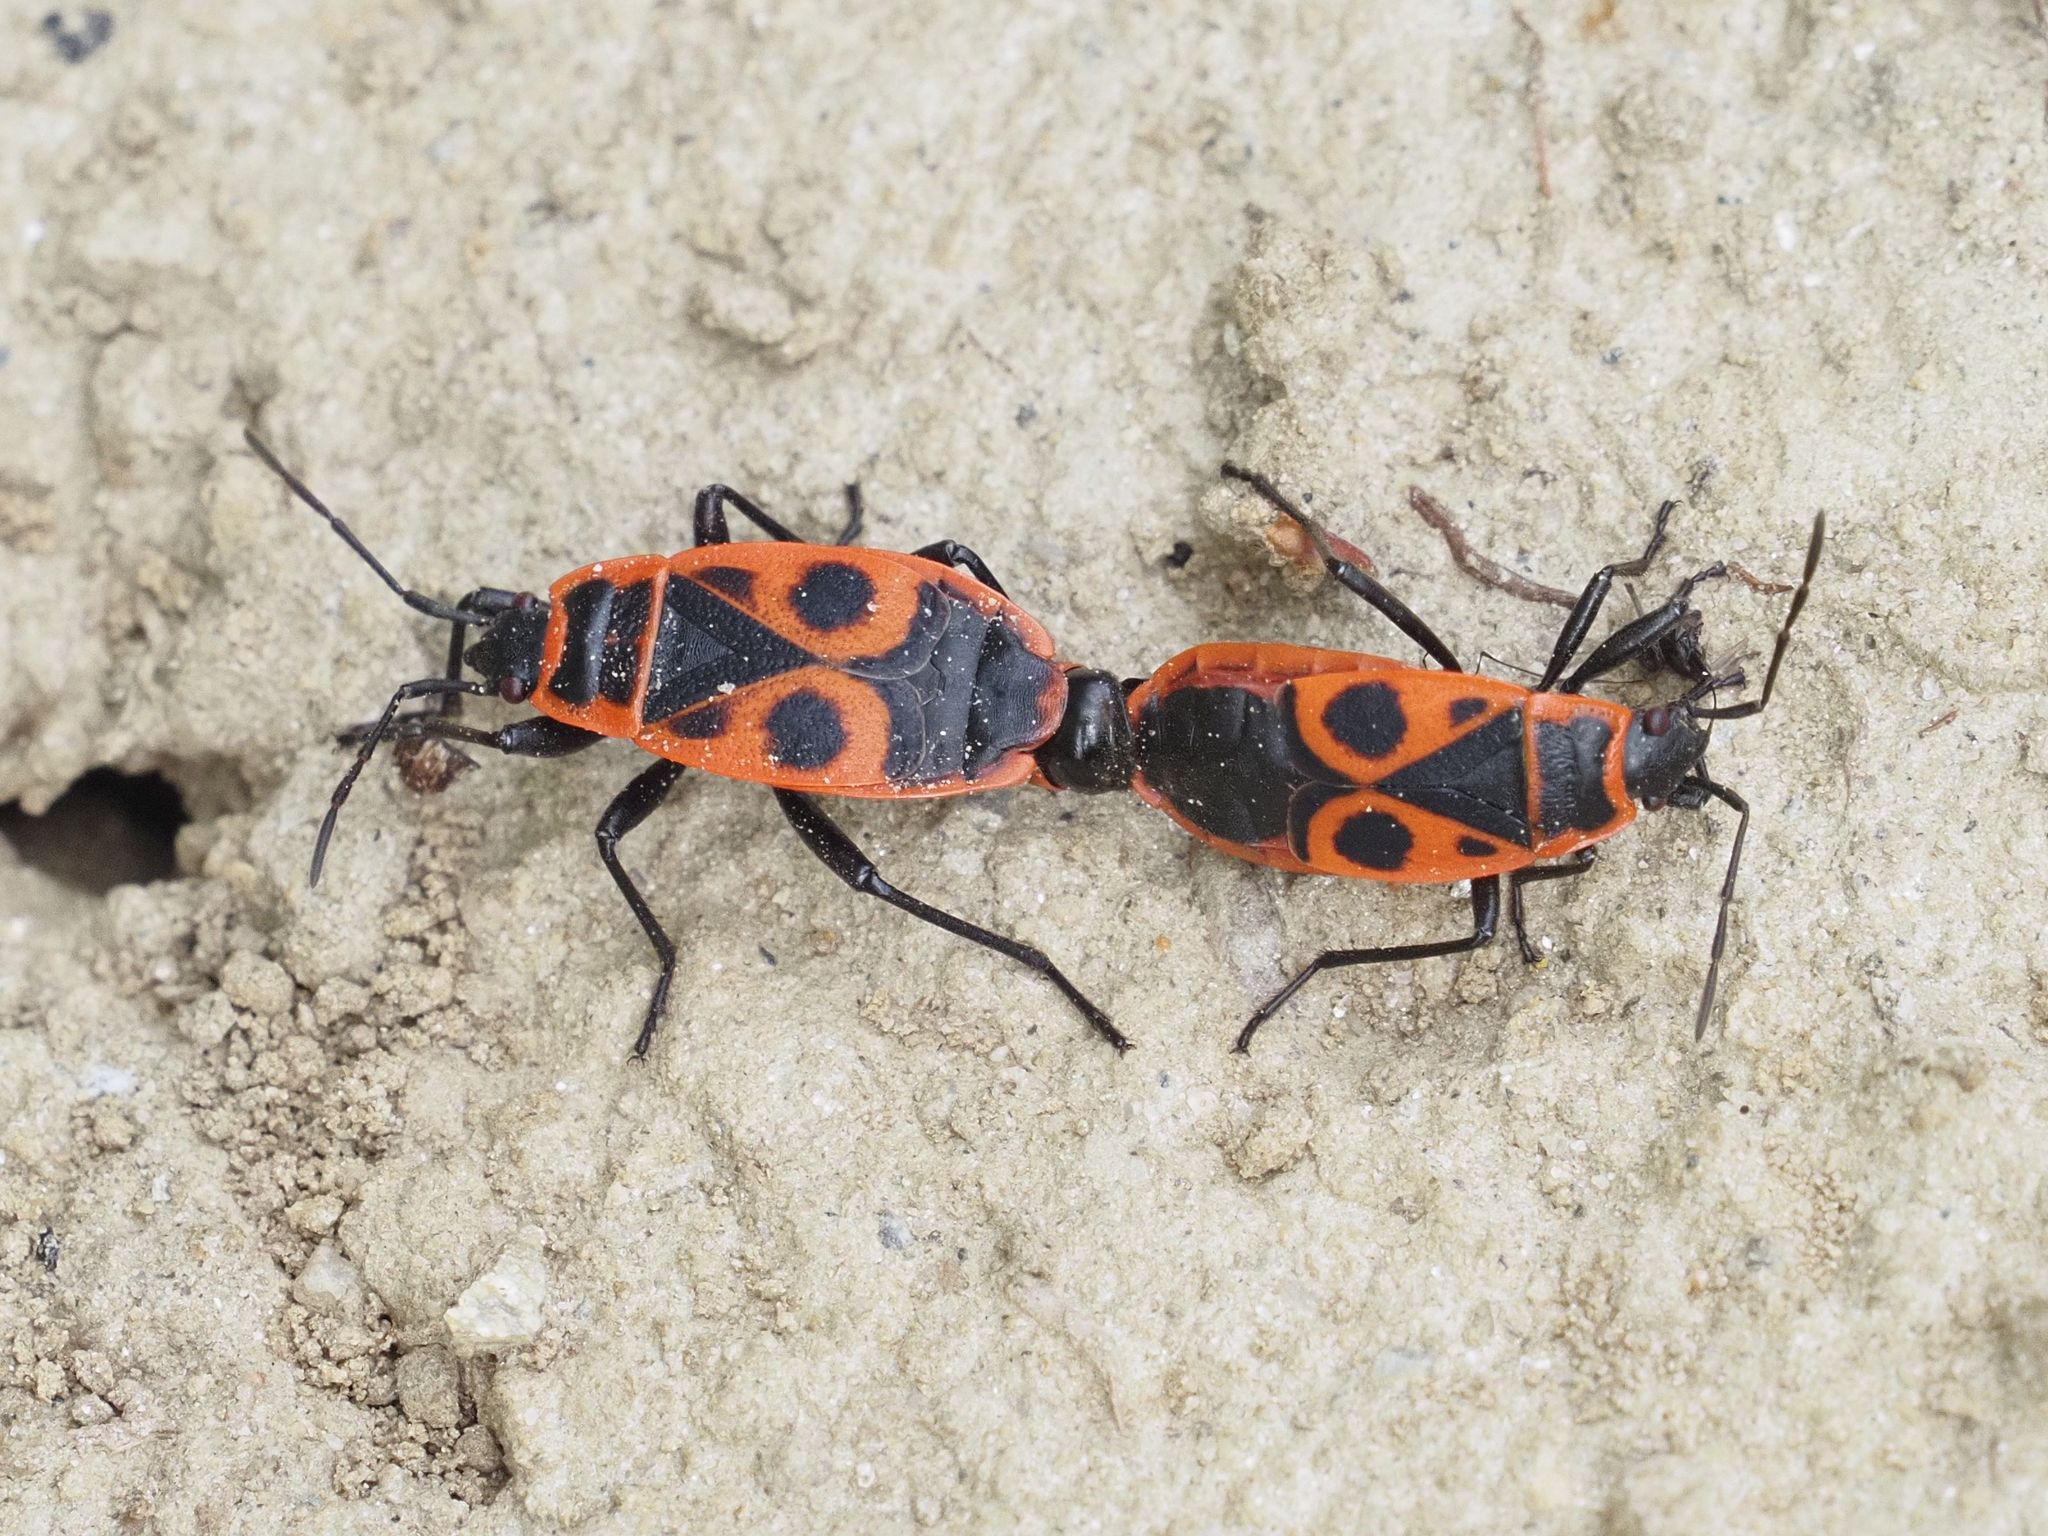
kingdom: Animalia
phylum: Arthropoda
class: Insecta
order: Hemiptera
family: Pyrrhocoridae
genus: Pyrrhocoris
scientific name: Pyrrhocoris apterus
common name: Firebug
